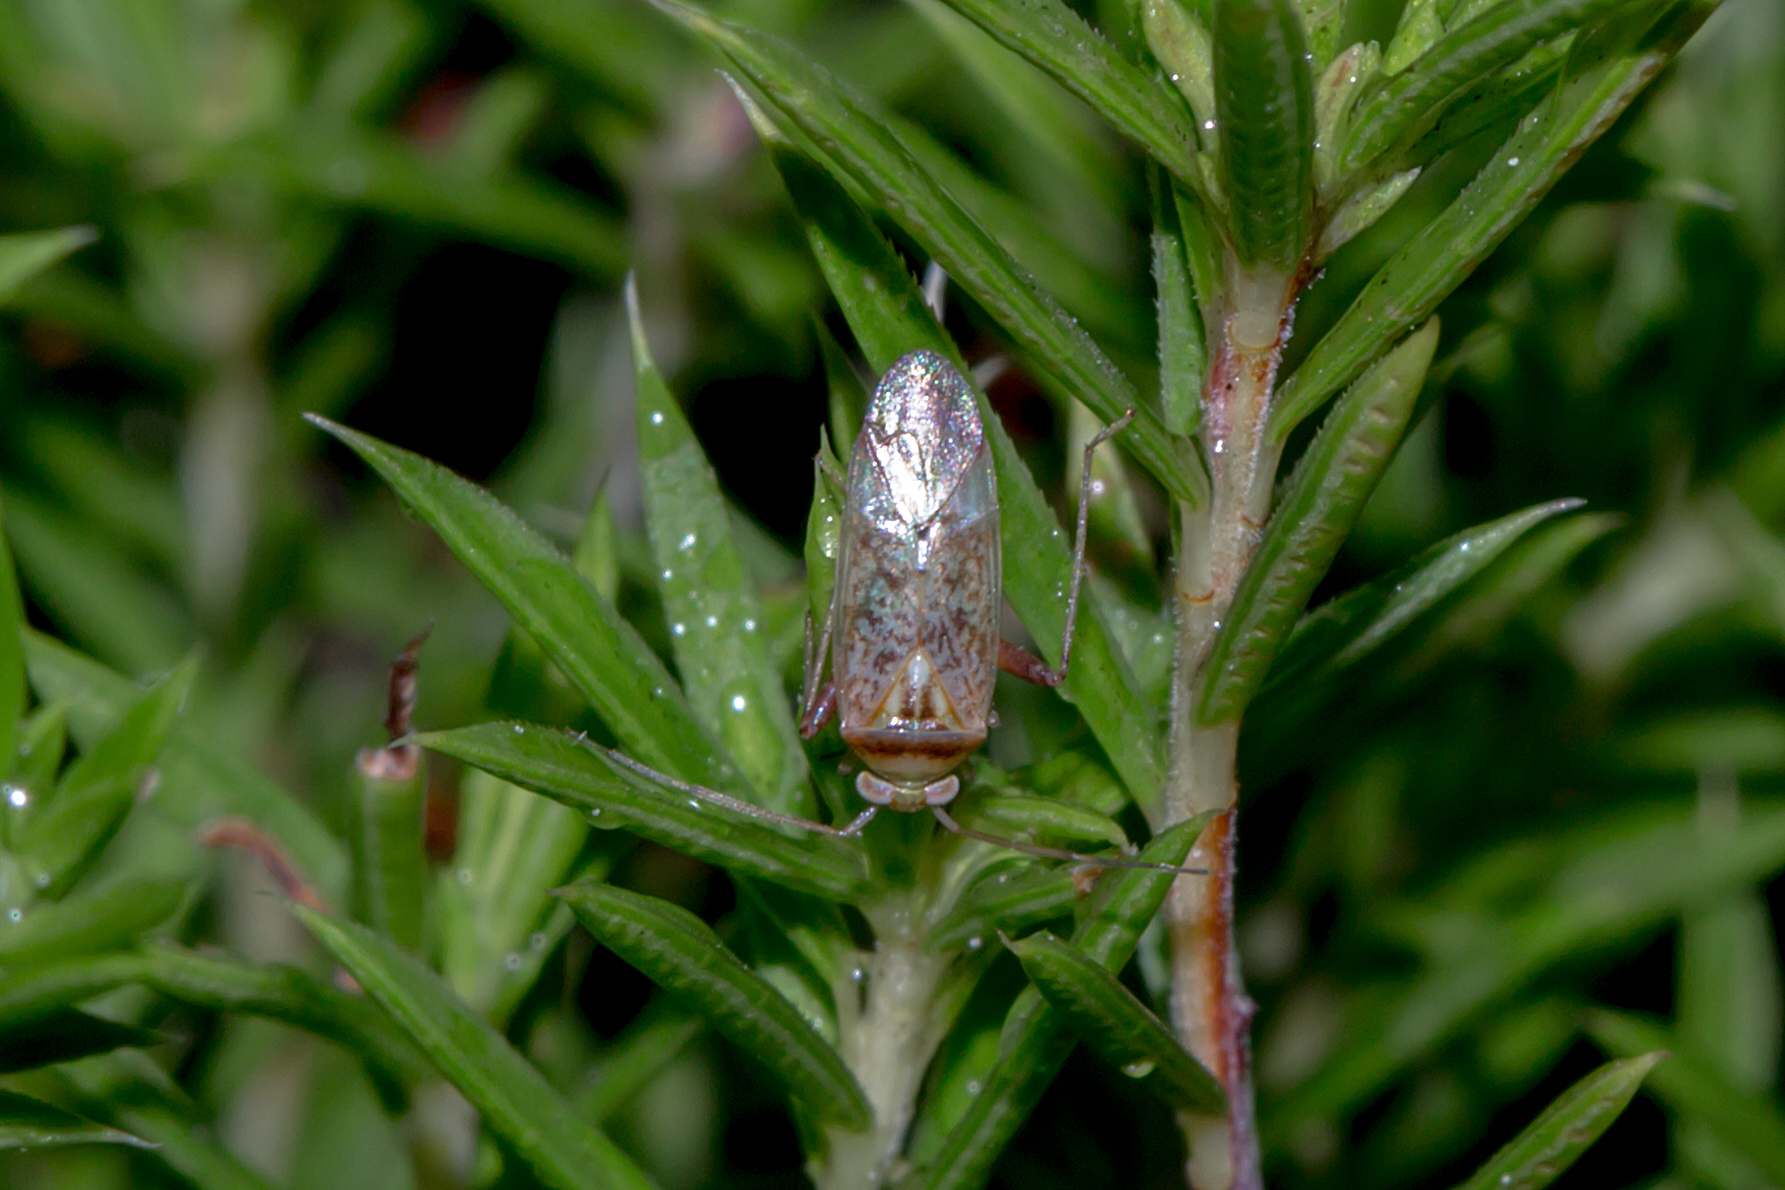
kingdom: Animalia
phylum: Arthropoda
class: Insecta
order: Hemiptera
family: Miridae
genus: Diomocoris
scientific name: Diomocoris
